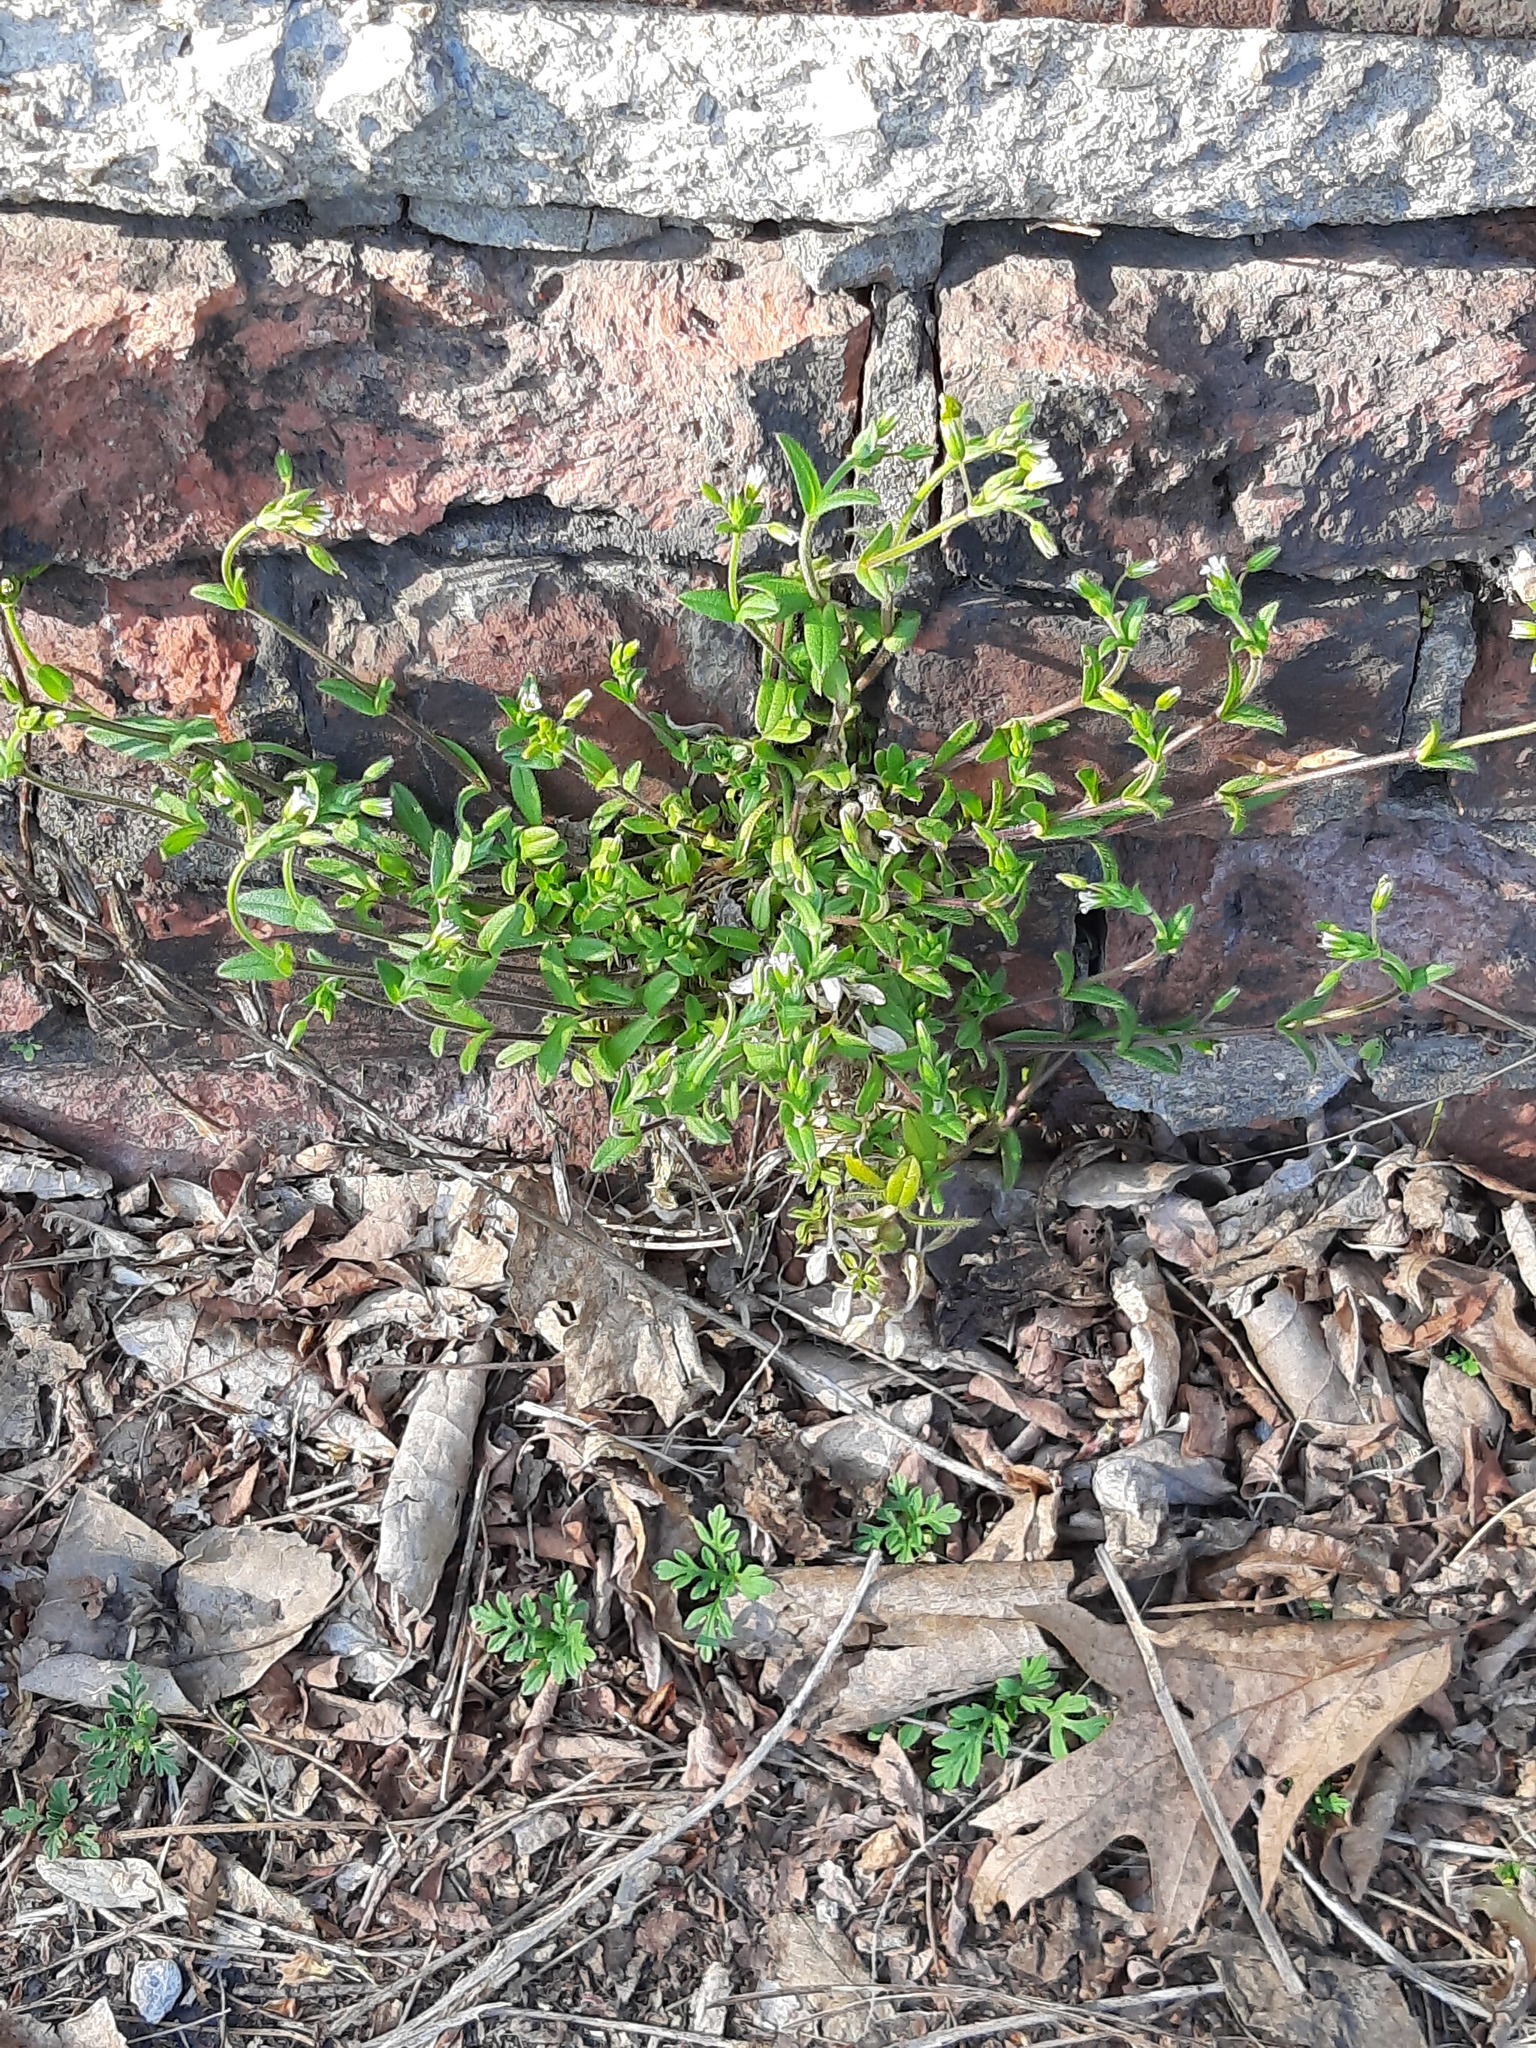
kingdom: Plantae
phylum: Tracheophyta
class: Magnoliopsida
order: Caryophyllales
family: Caryophyllaceae
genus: Cerastium
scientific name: Cerastium fontanum
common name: Common mouse-ear
